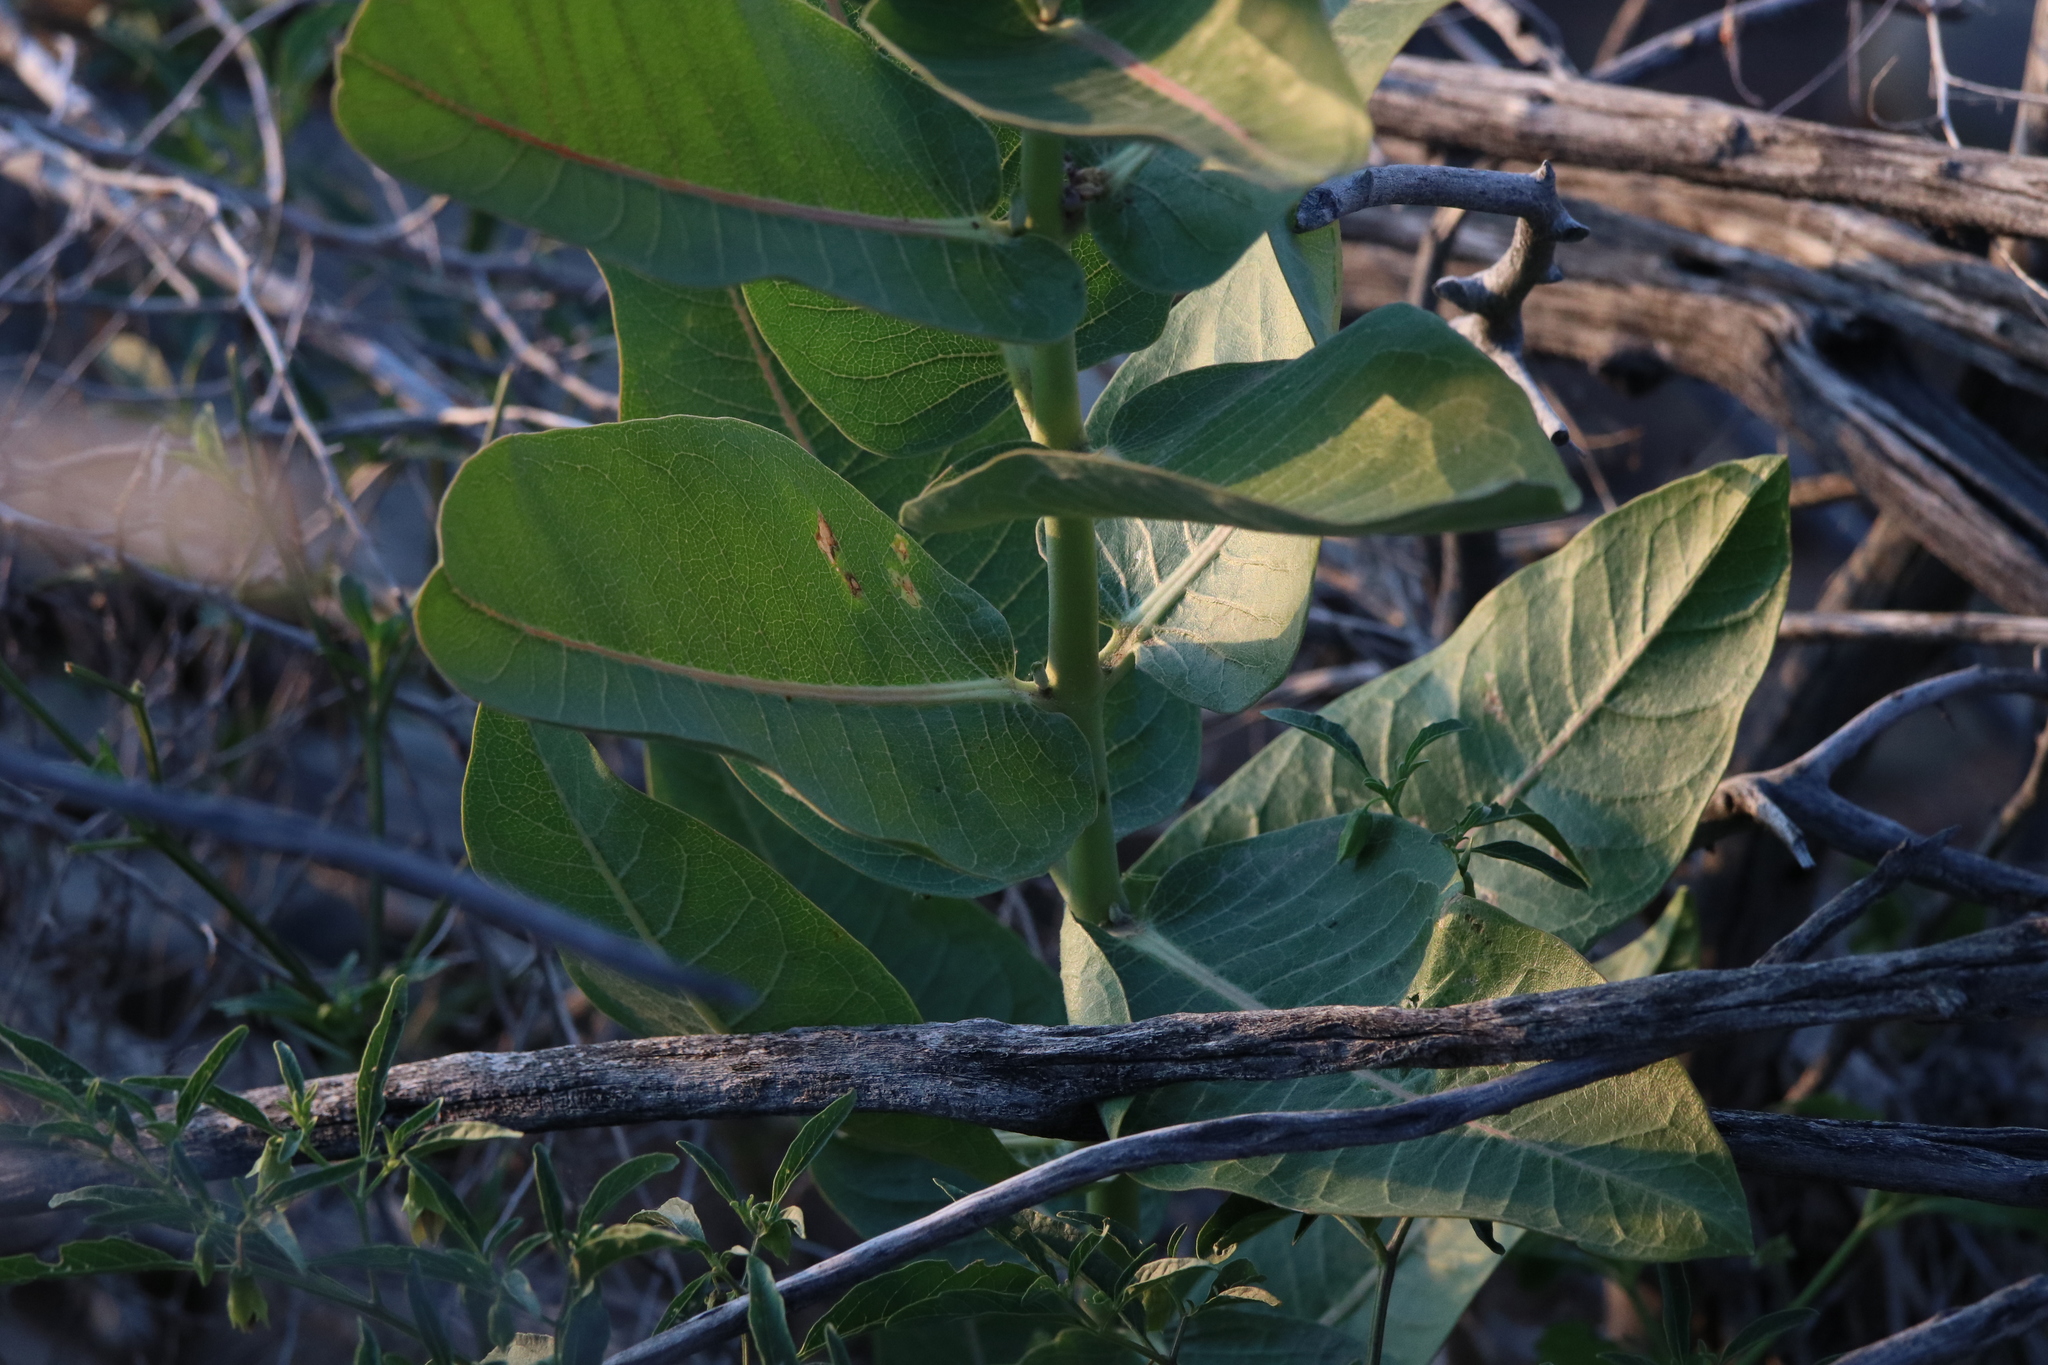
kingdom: Plantae
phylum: Tracheophyta
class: Magnoliopsida
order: Gentianales
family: Apocynaceae
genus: Asclepias
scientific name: Asclepias speciosa
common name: Showy milkweed
